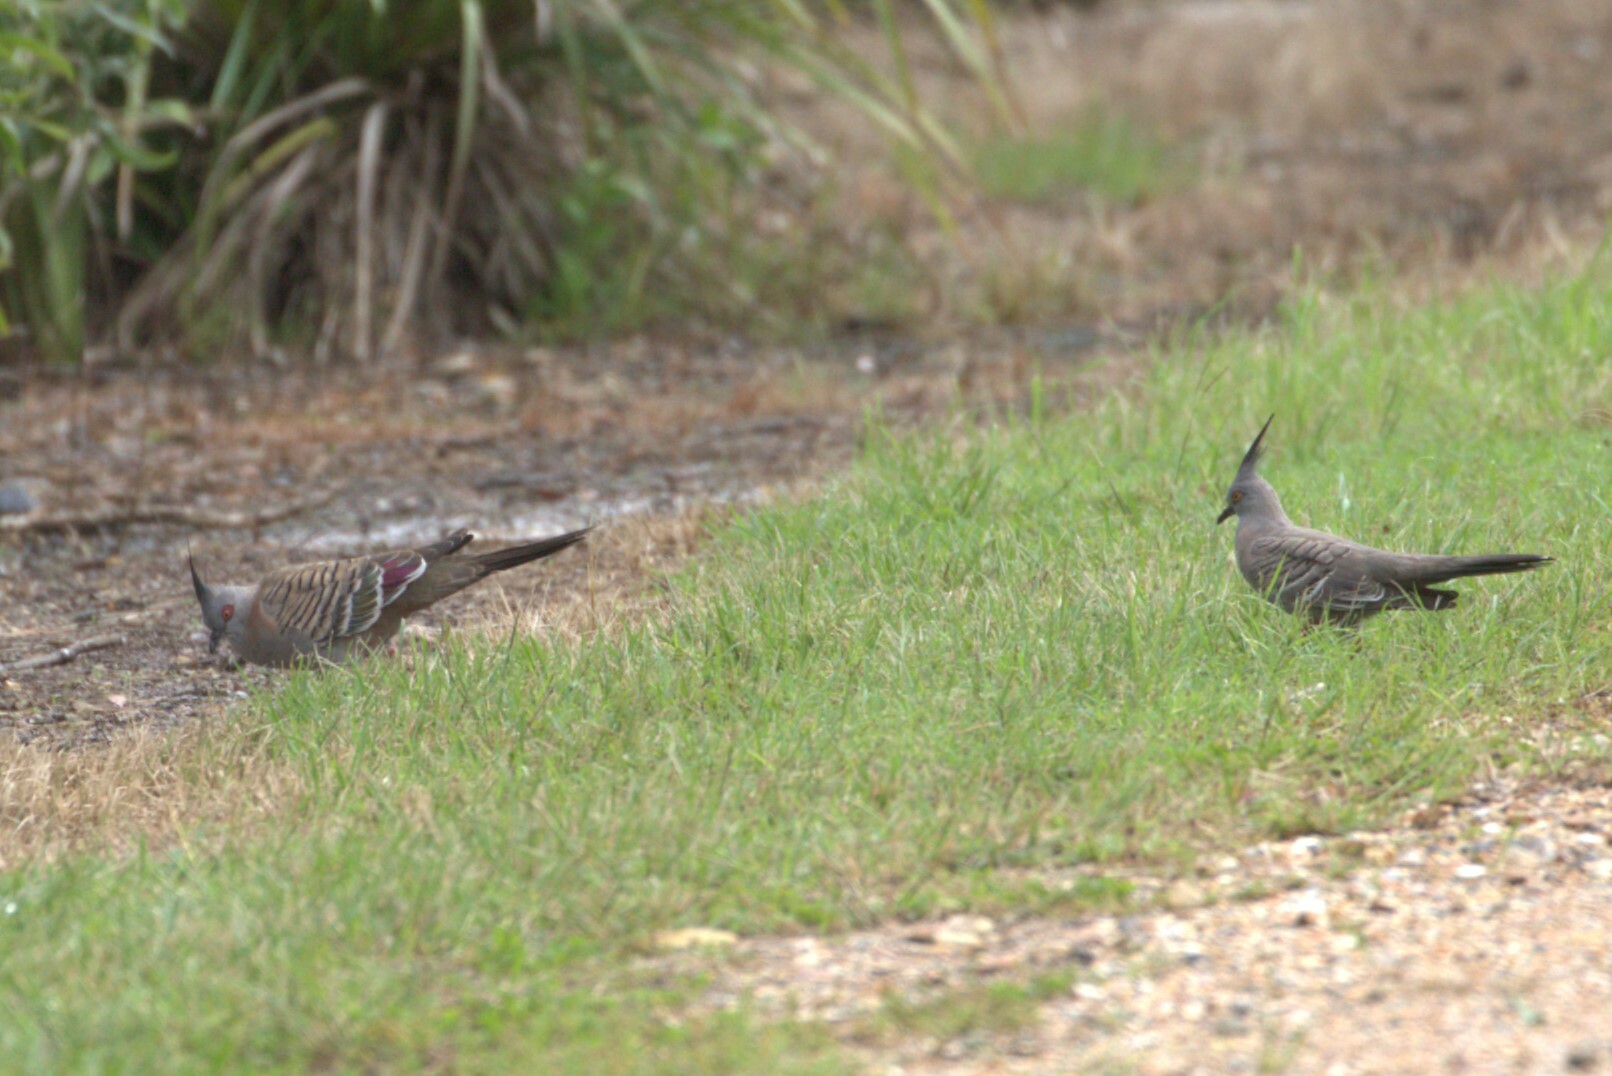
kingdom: Animalia
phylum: Chordata
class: Aves
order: Columbiformes
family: Columbidae
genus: Ocyphaps
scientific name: Ocyphaps lophotes
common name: Crested pigeon
